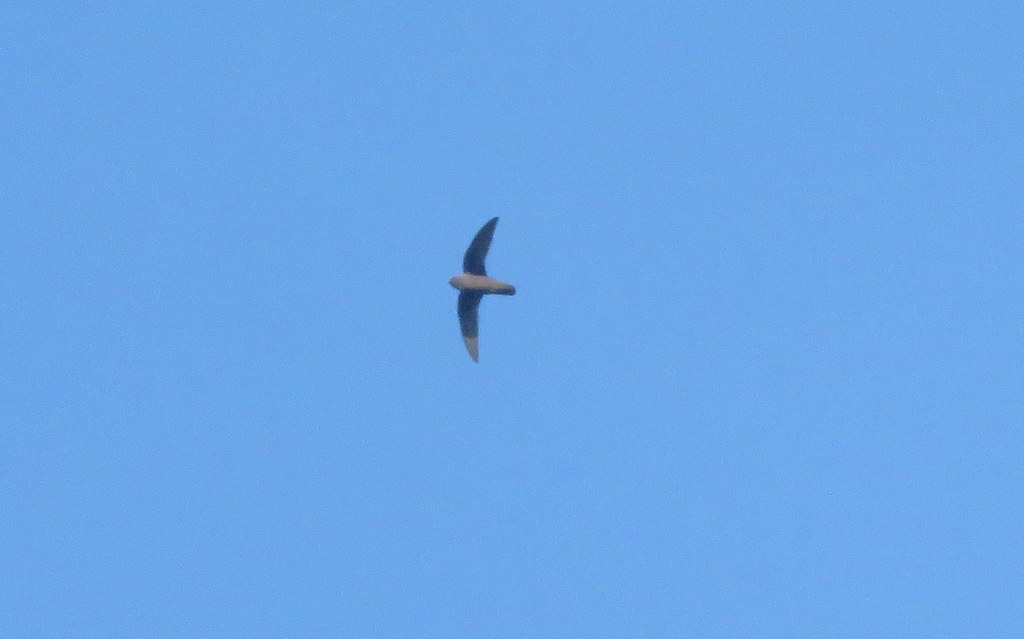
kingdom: Animalia
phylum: Chordata
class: Aves
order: Apodiformes
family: Apodidae
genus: Cypseloides
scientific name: Cypseloides rothschildi
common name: Rothschild's swift
